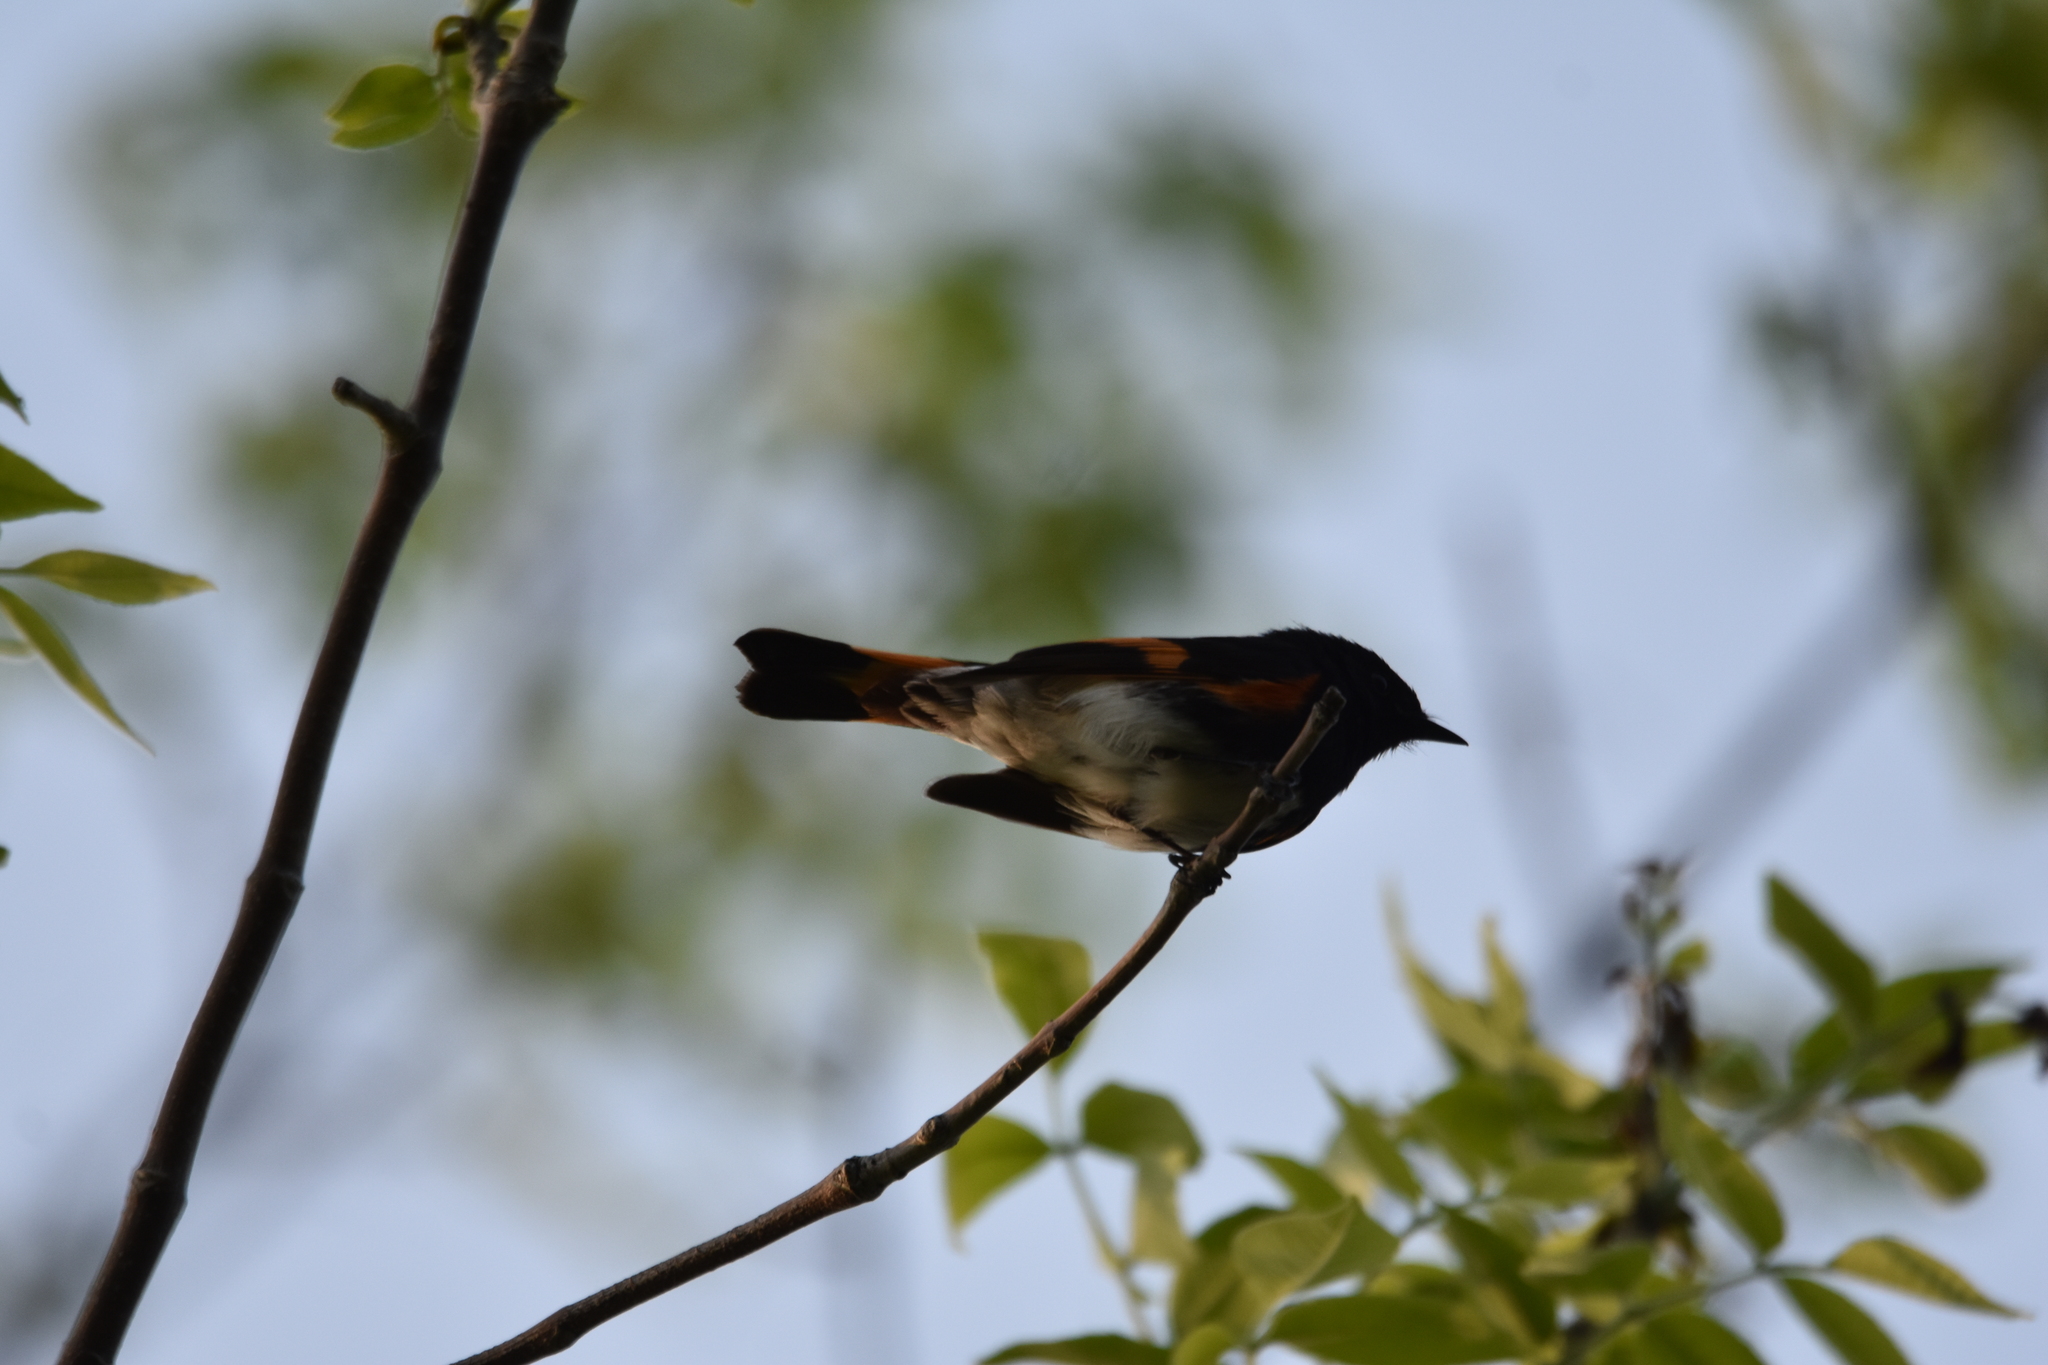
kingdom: Animalia
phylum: Chordata
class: Aves
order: Passeriformes
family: Parulidae
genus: Setophaga
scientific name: Setophaga ruticilla
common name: American redstart
